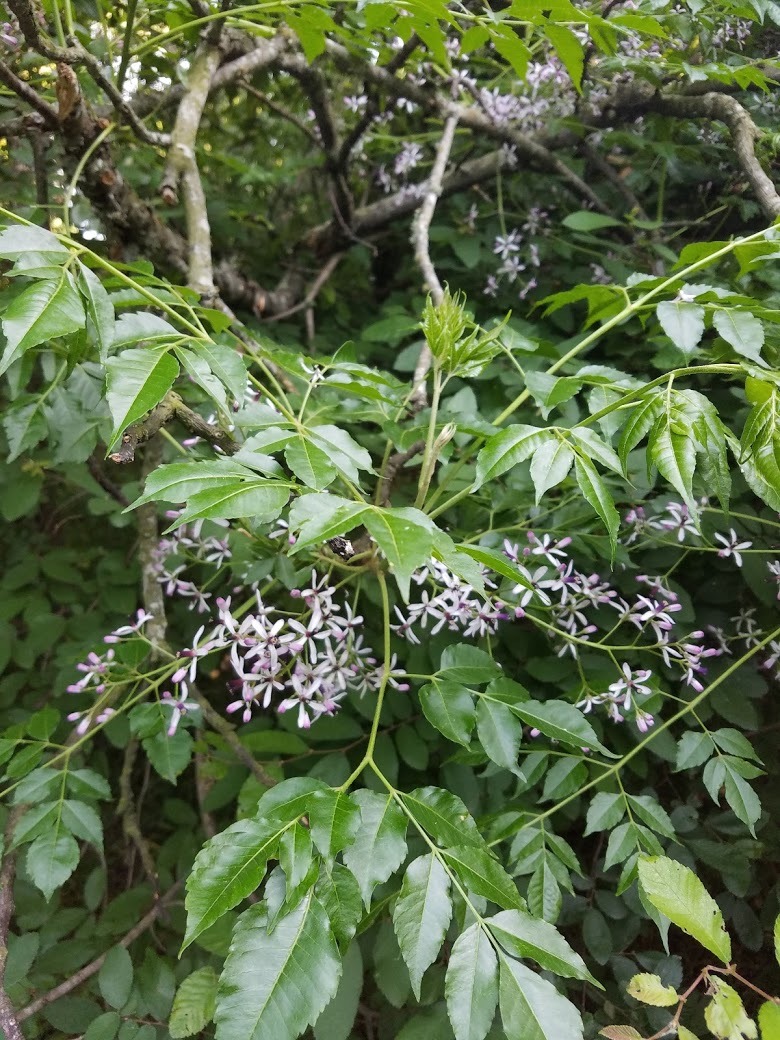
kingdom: Plantae
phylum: Tracheophyta
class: Magnoliopsida
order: Sapindales
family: Meliaceae
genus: Melia
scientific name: Melia azedarach
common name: Chinaberrytree
